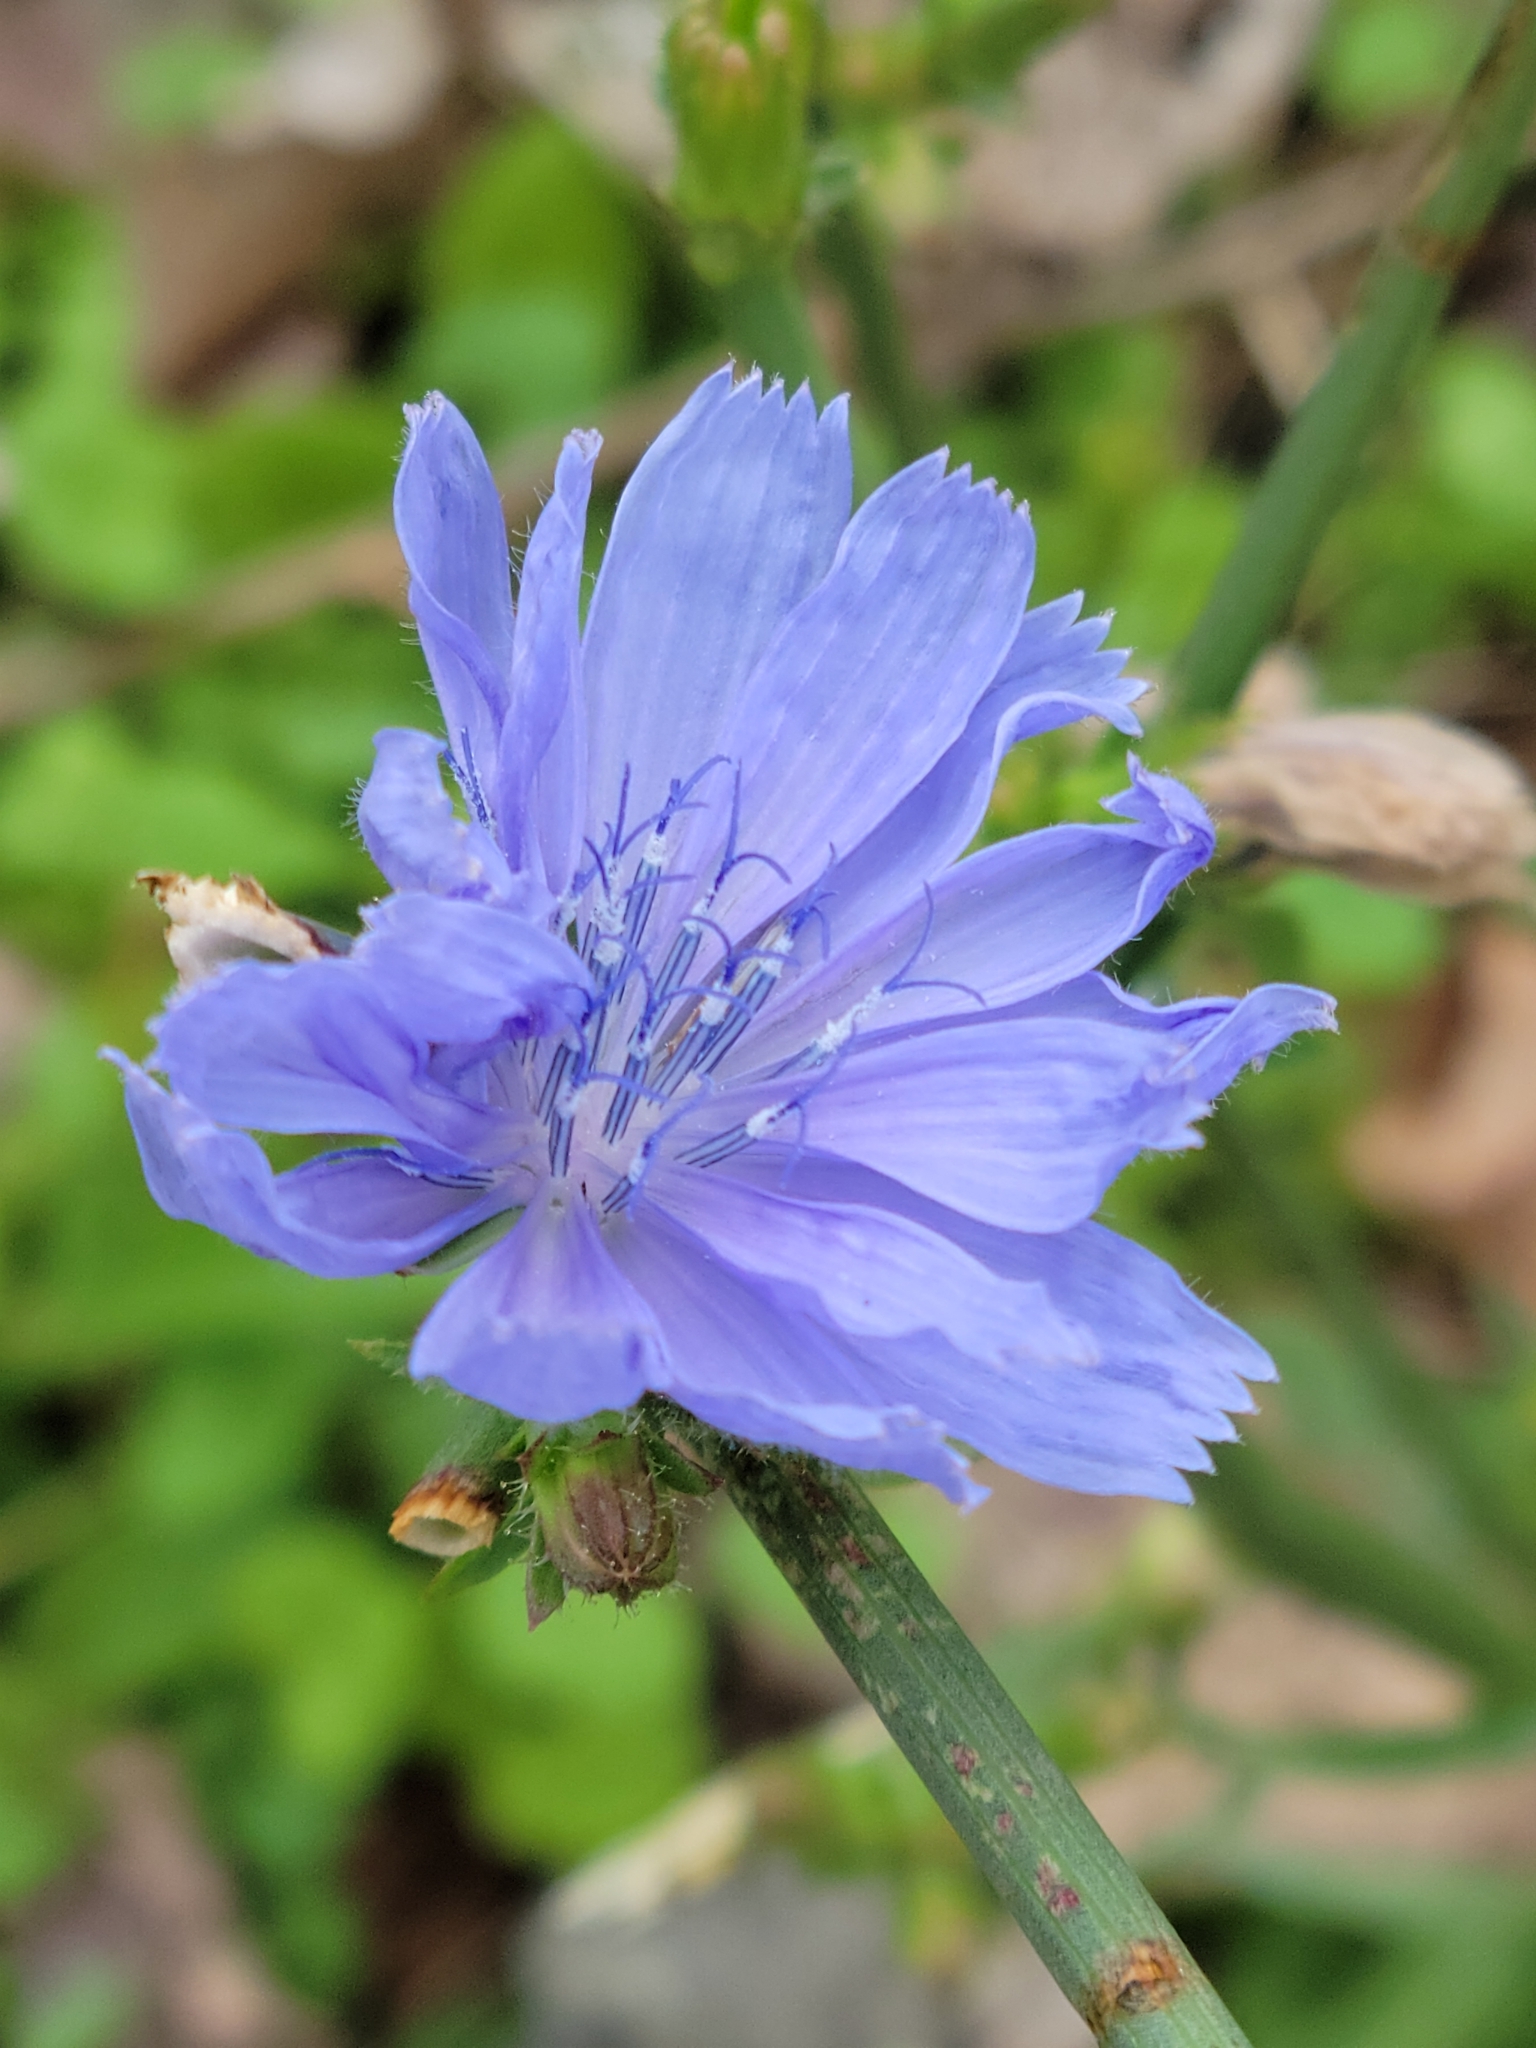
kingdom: Plantae
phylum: Tracheophyta
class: Magnoliopsida
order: Asterales
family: Asteraceae
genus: Cichorium
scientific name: Cichorium intybus
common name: Chicory
